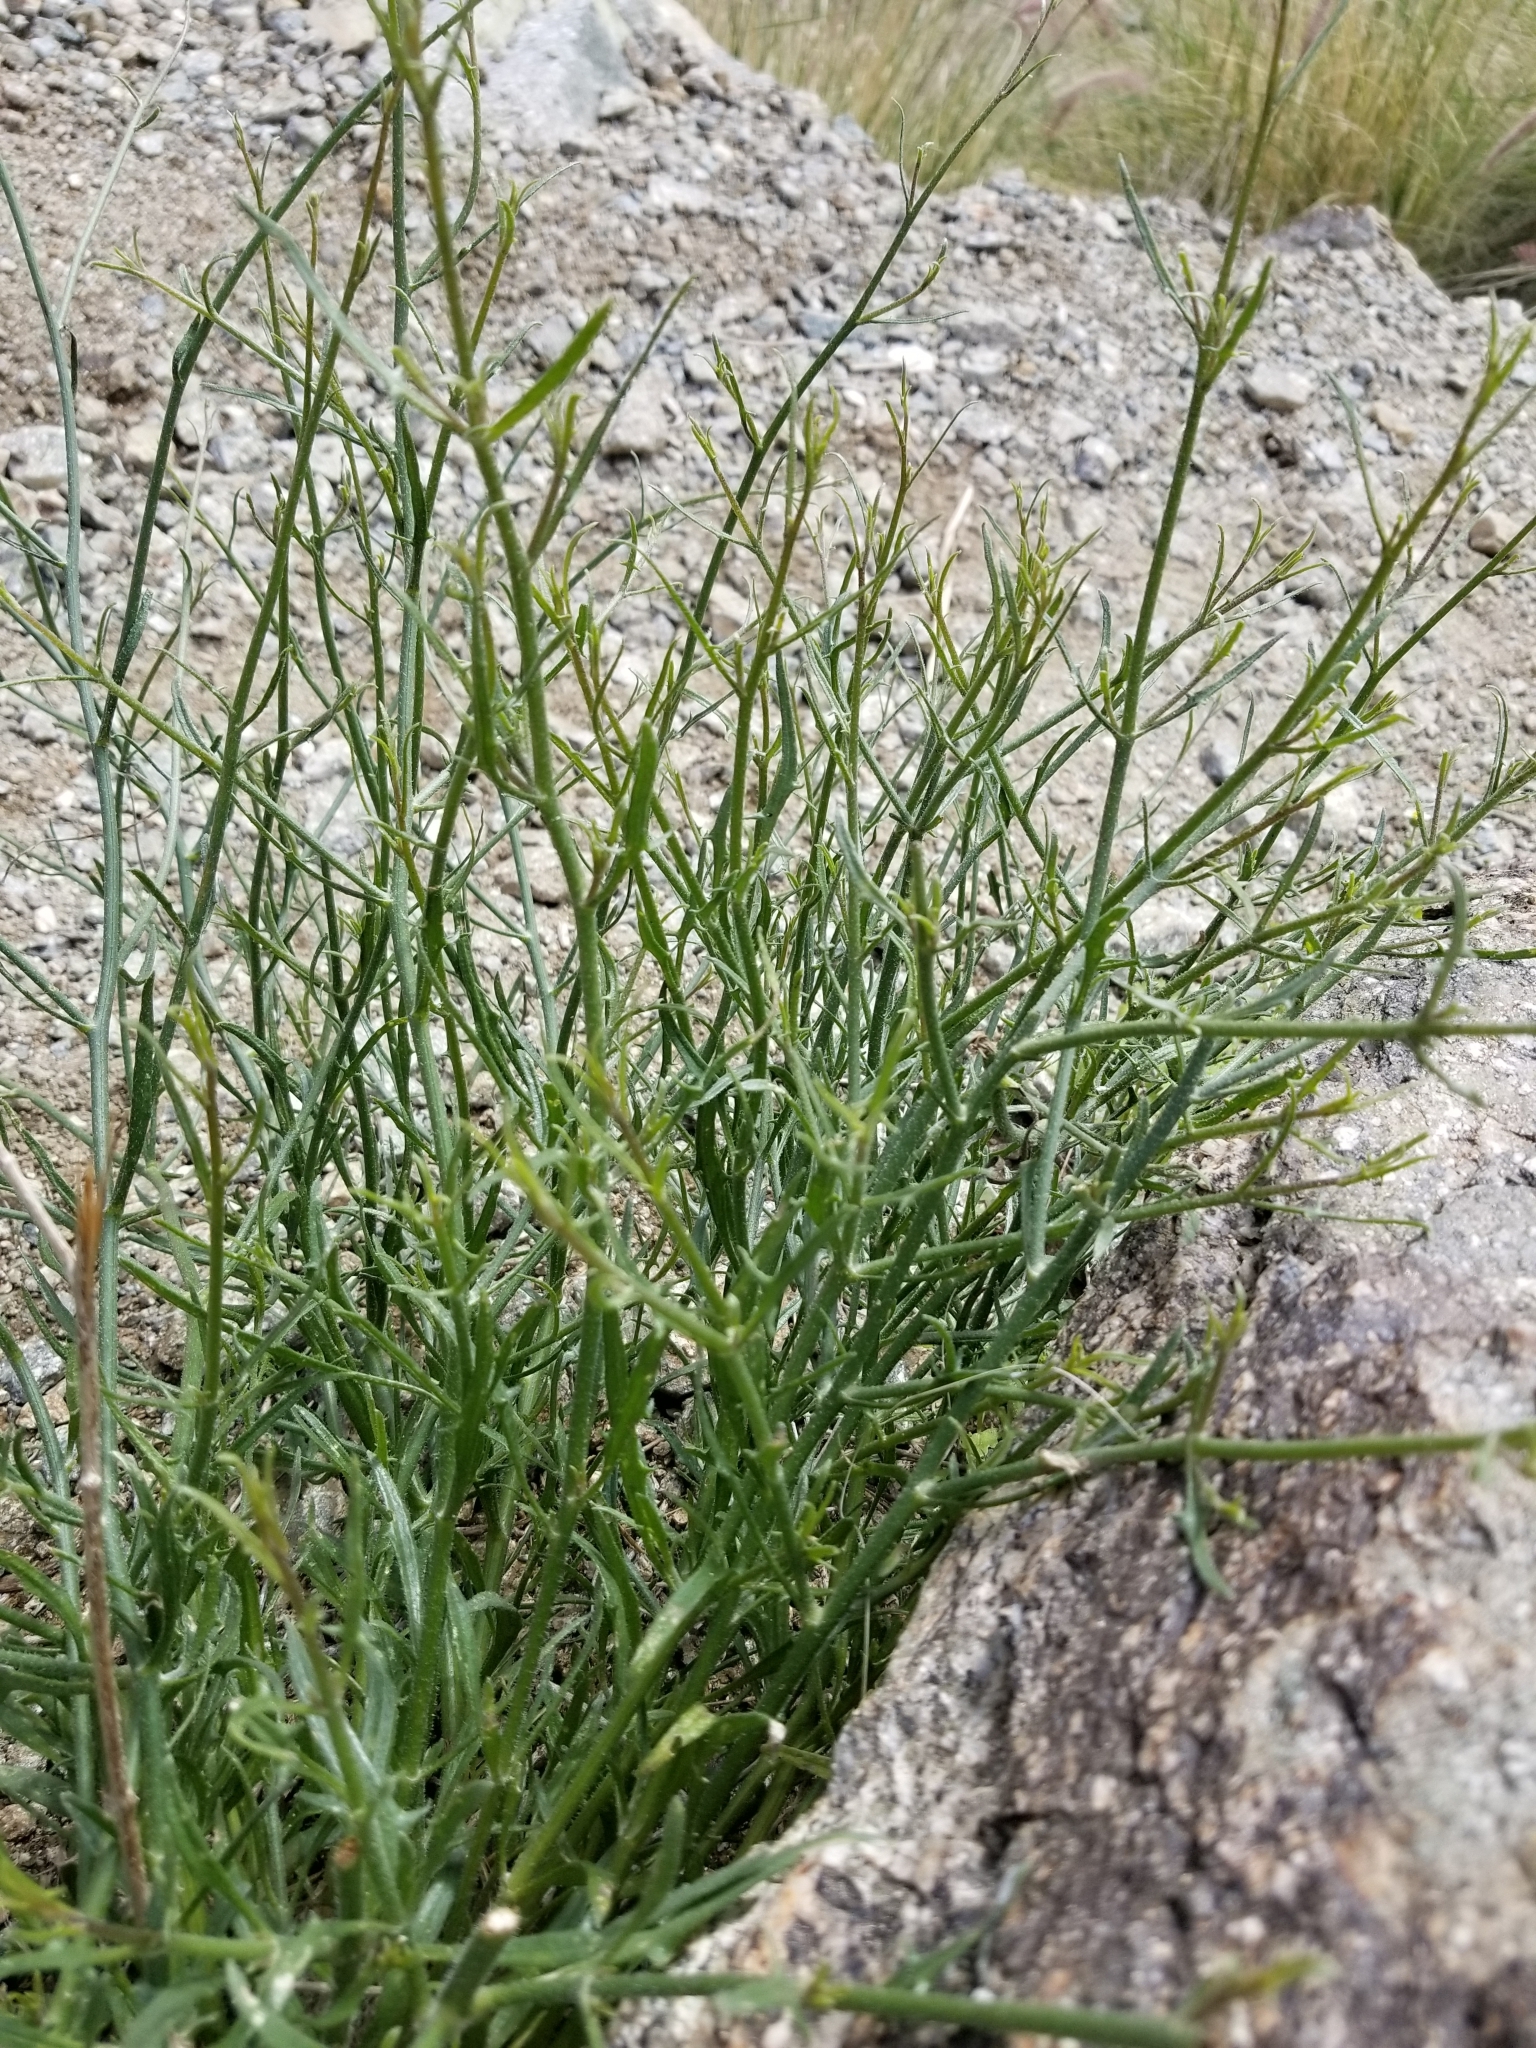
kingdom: Plantae
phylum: Tracheophyta
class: Magnoliopsida
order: Asterales
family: Asteraceae
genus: Bebbia
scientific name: Bebbia juncea
